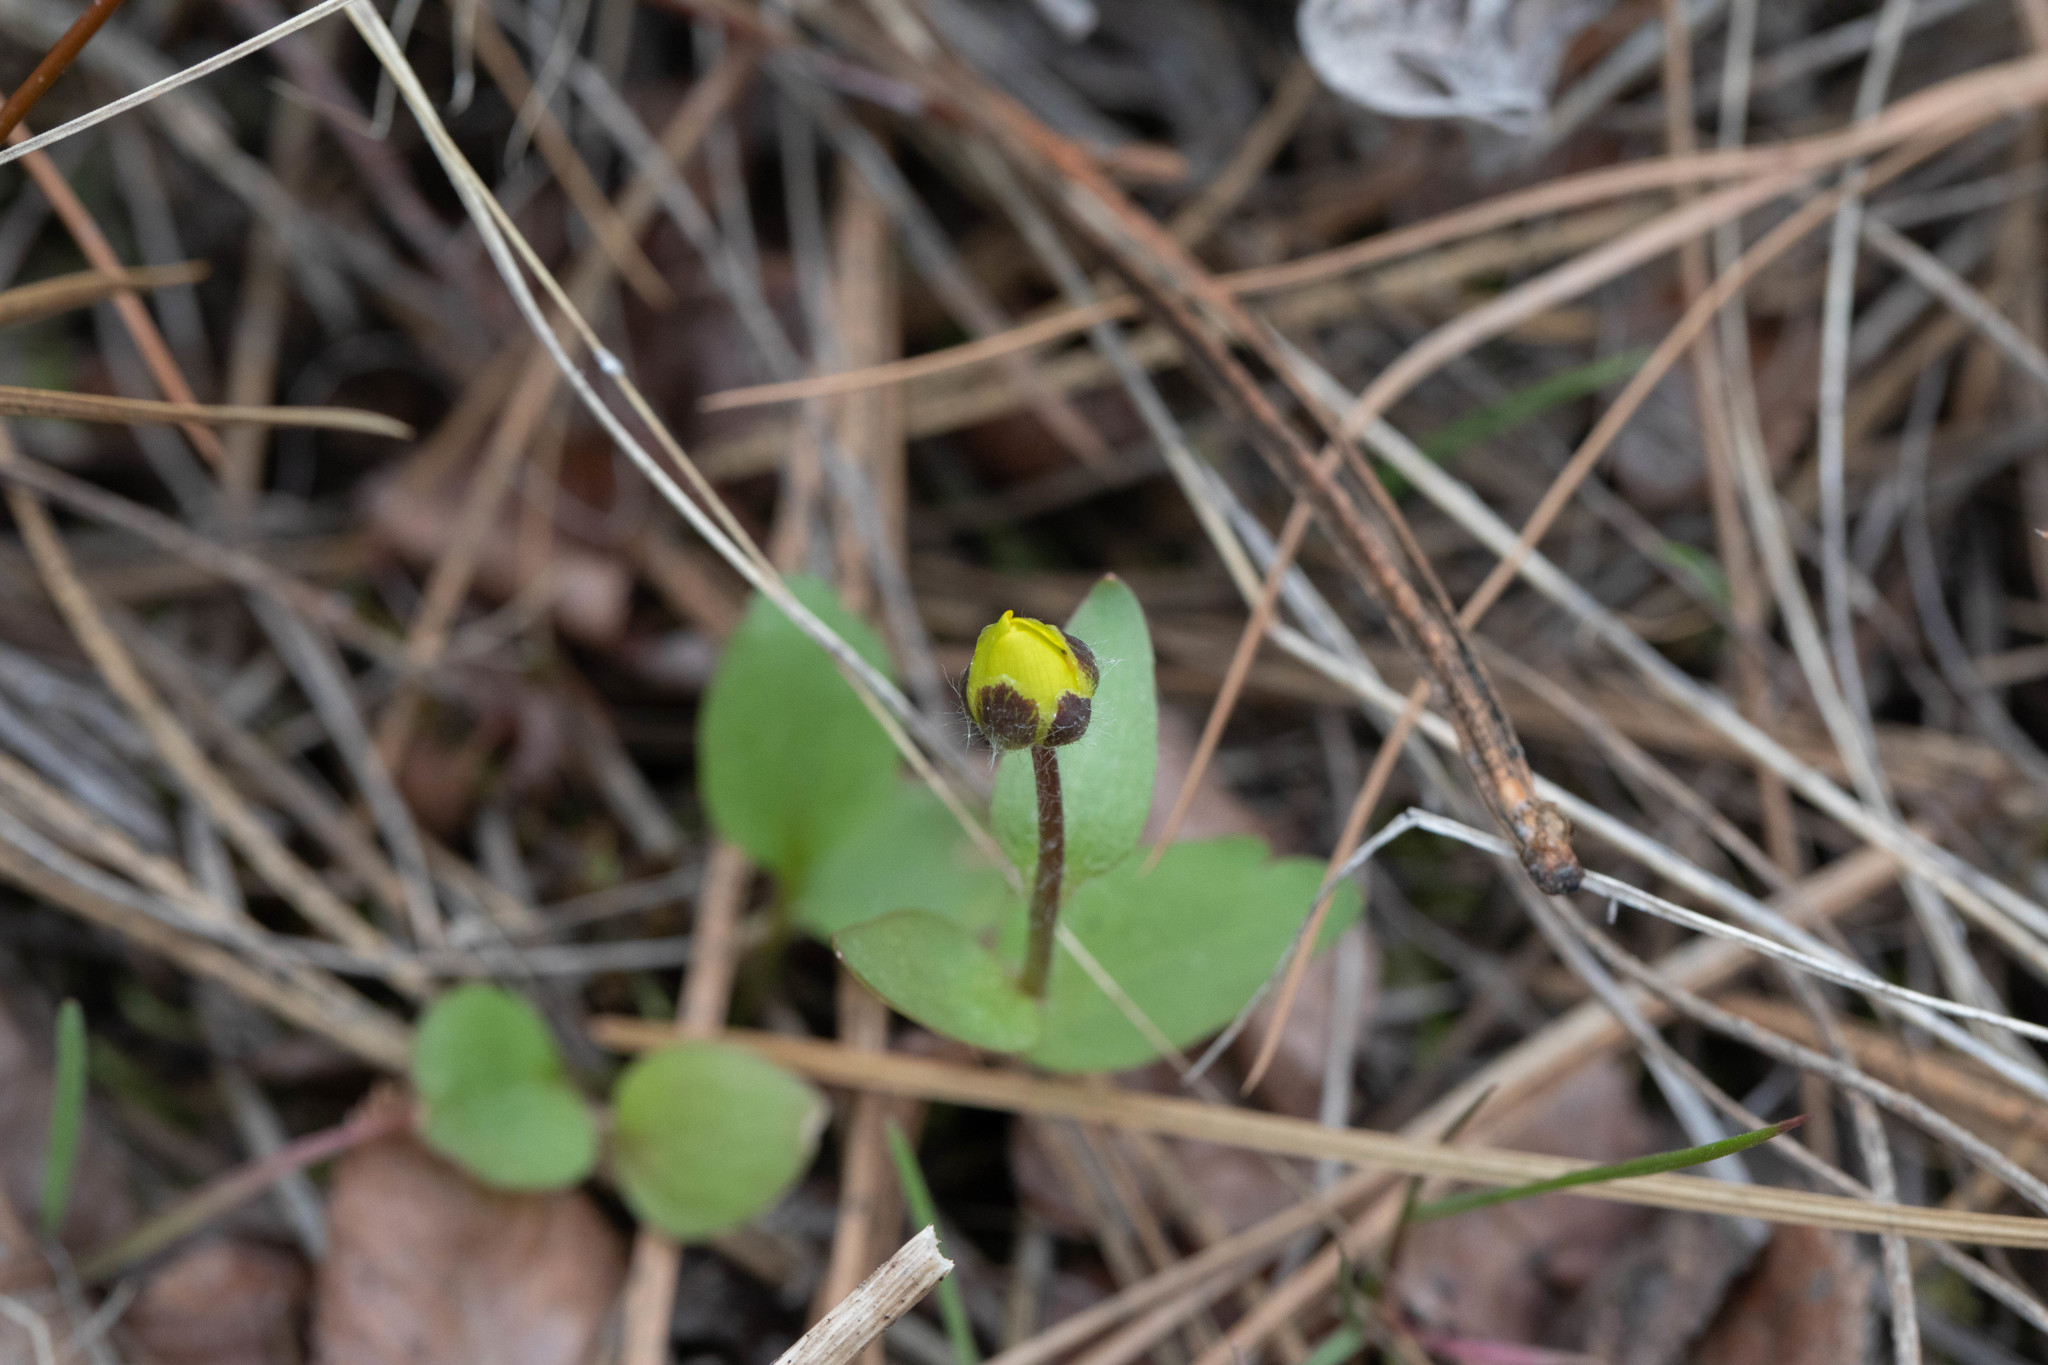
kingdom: Plantae
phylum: Tracheophyta
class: Magnoliopsida
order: Ranunculales
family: Ranunculaceae
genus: Ranunculus
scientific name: Ranunculus glaberrimus
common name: Sagebrush buttercup
